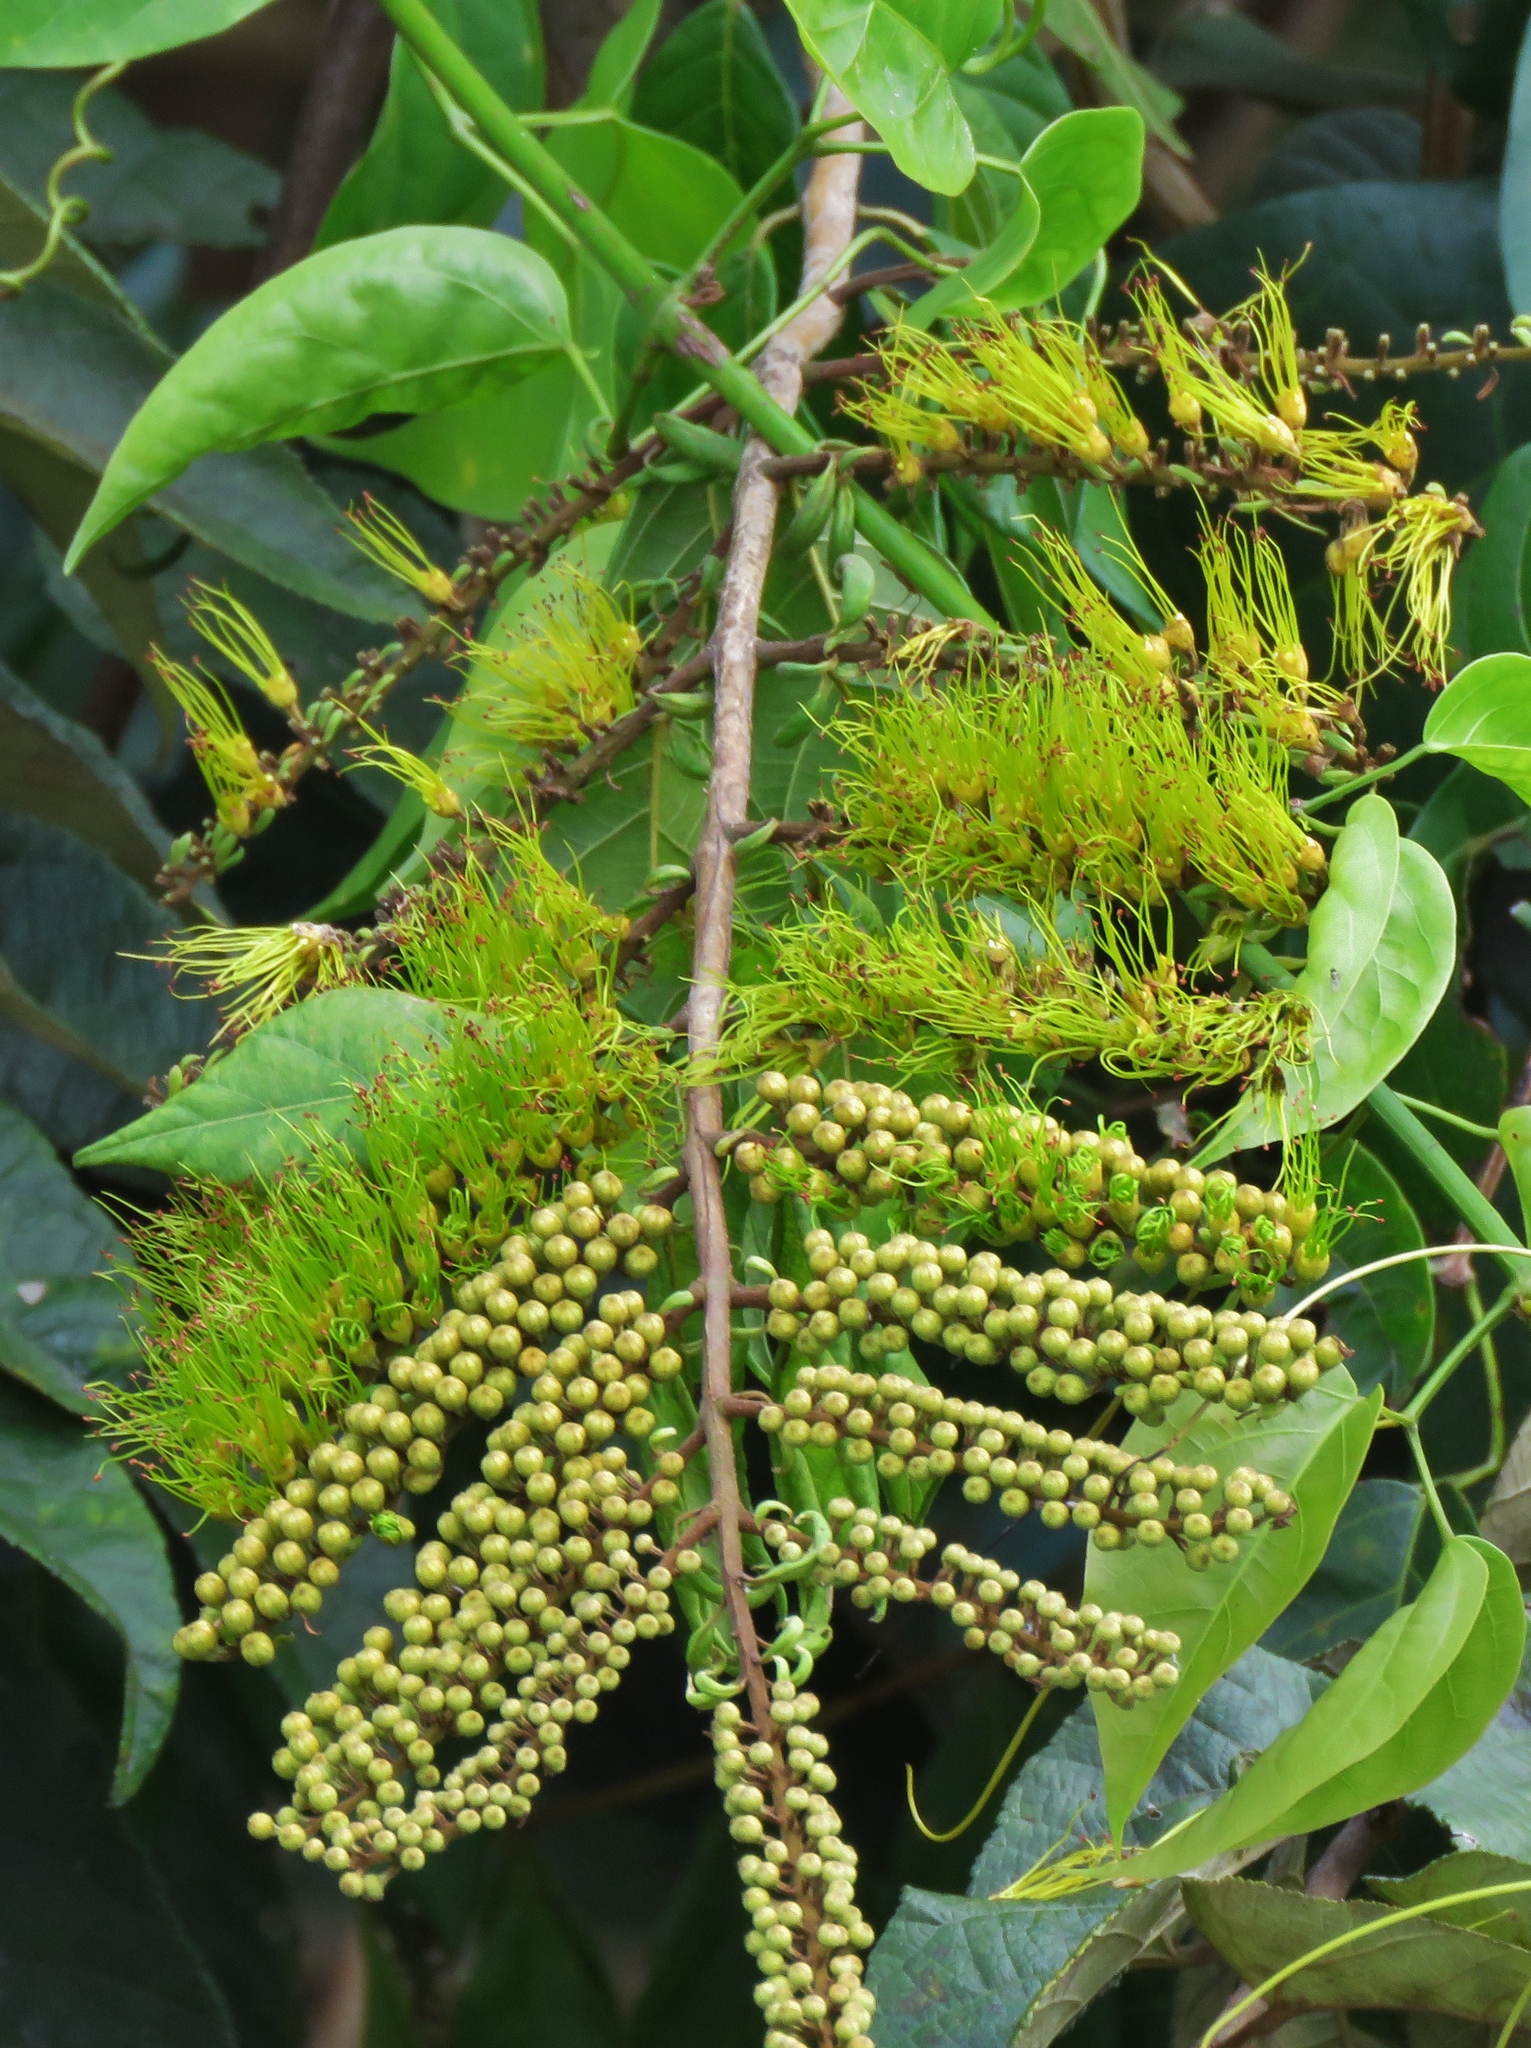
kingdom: Plantae
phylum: Tracheophyta
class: Magnoliopsida
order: Myrtales
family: Combretaceae
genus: Combretum
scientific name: Combretum fruticosum
